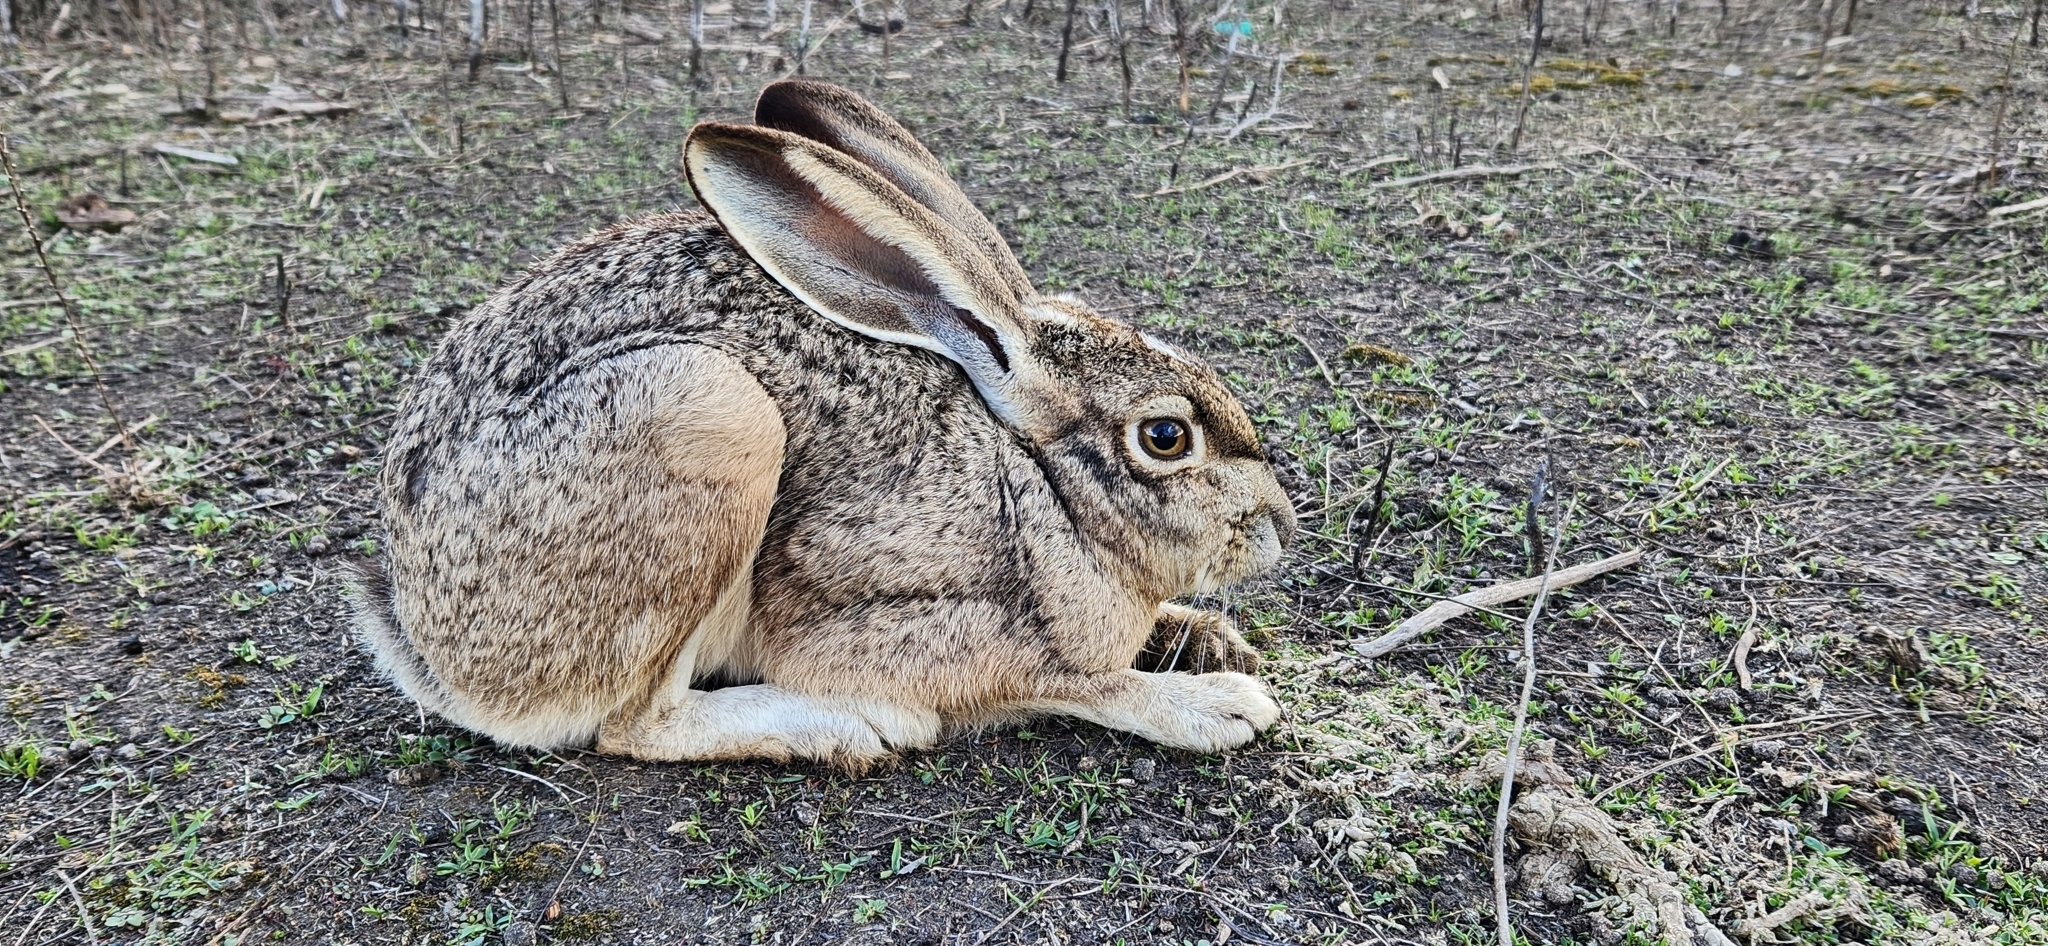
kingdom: Animalia
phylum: Chordata
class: Mammalia
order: Lagomorpha
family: Leporidae
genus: Lepus
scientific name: Lepus californicus
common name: Black-tailed jackrabbit
